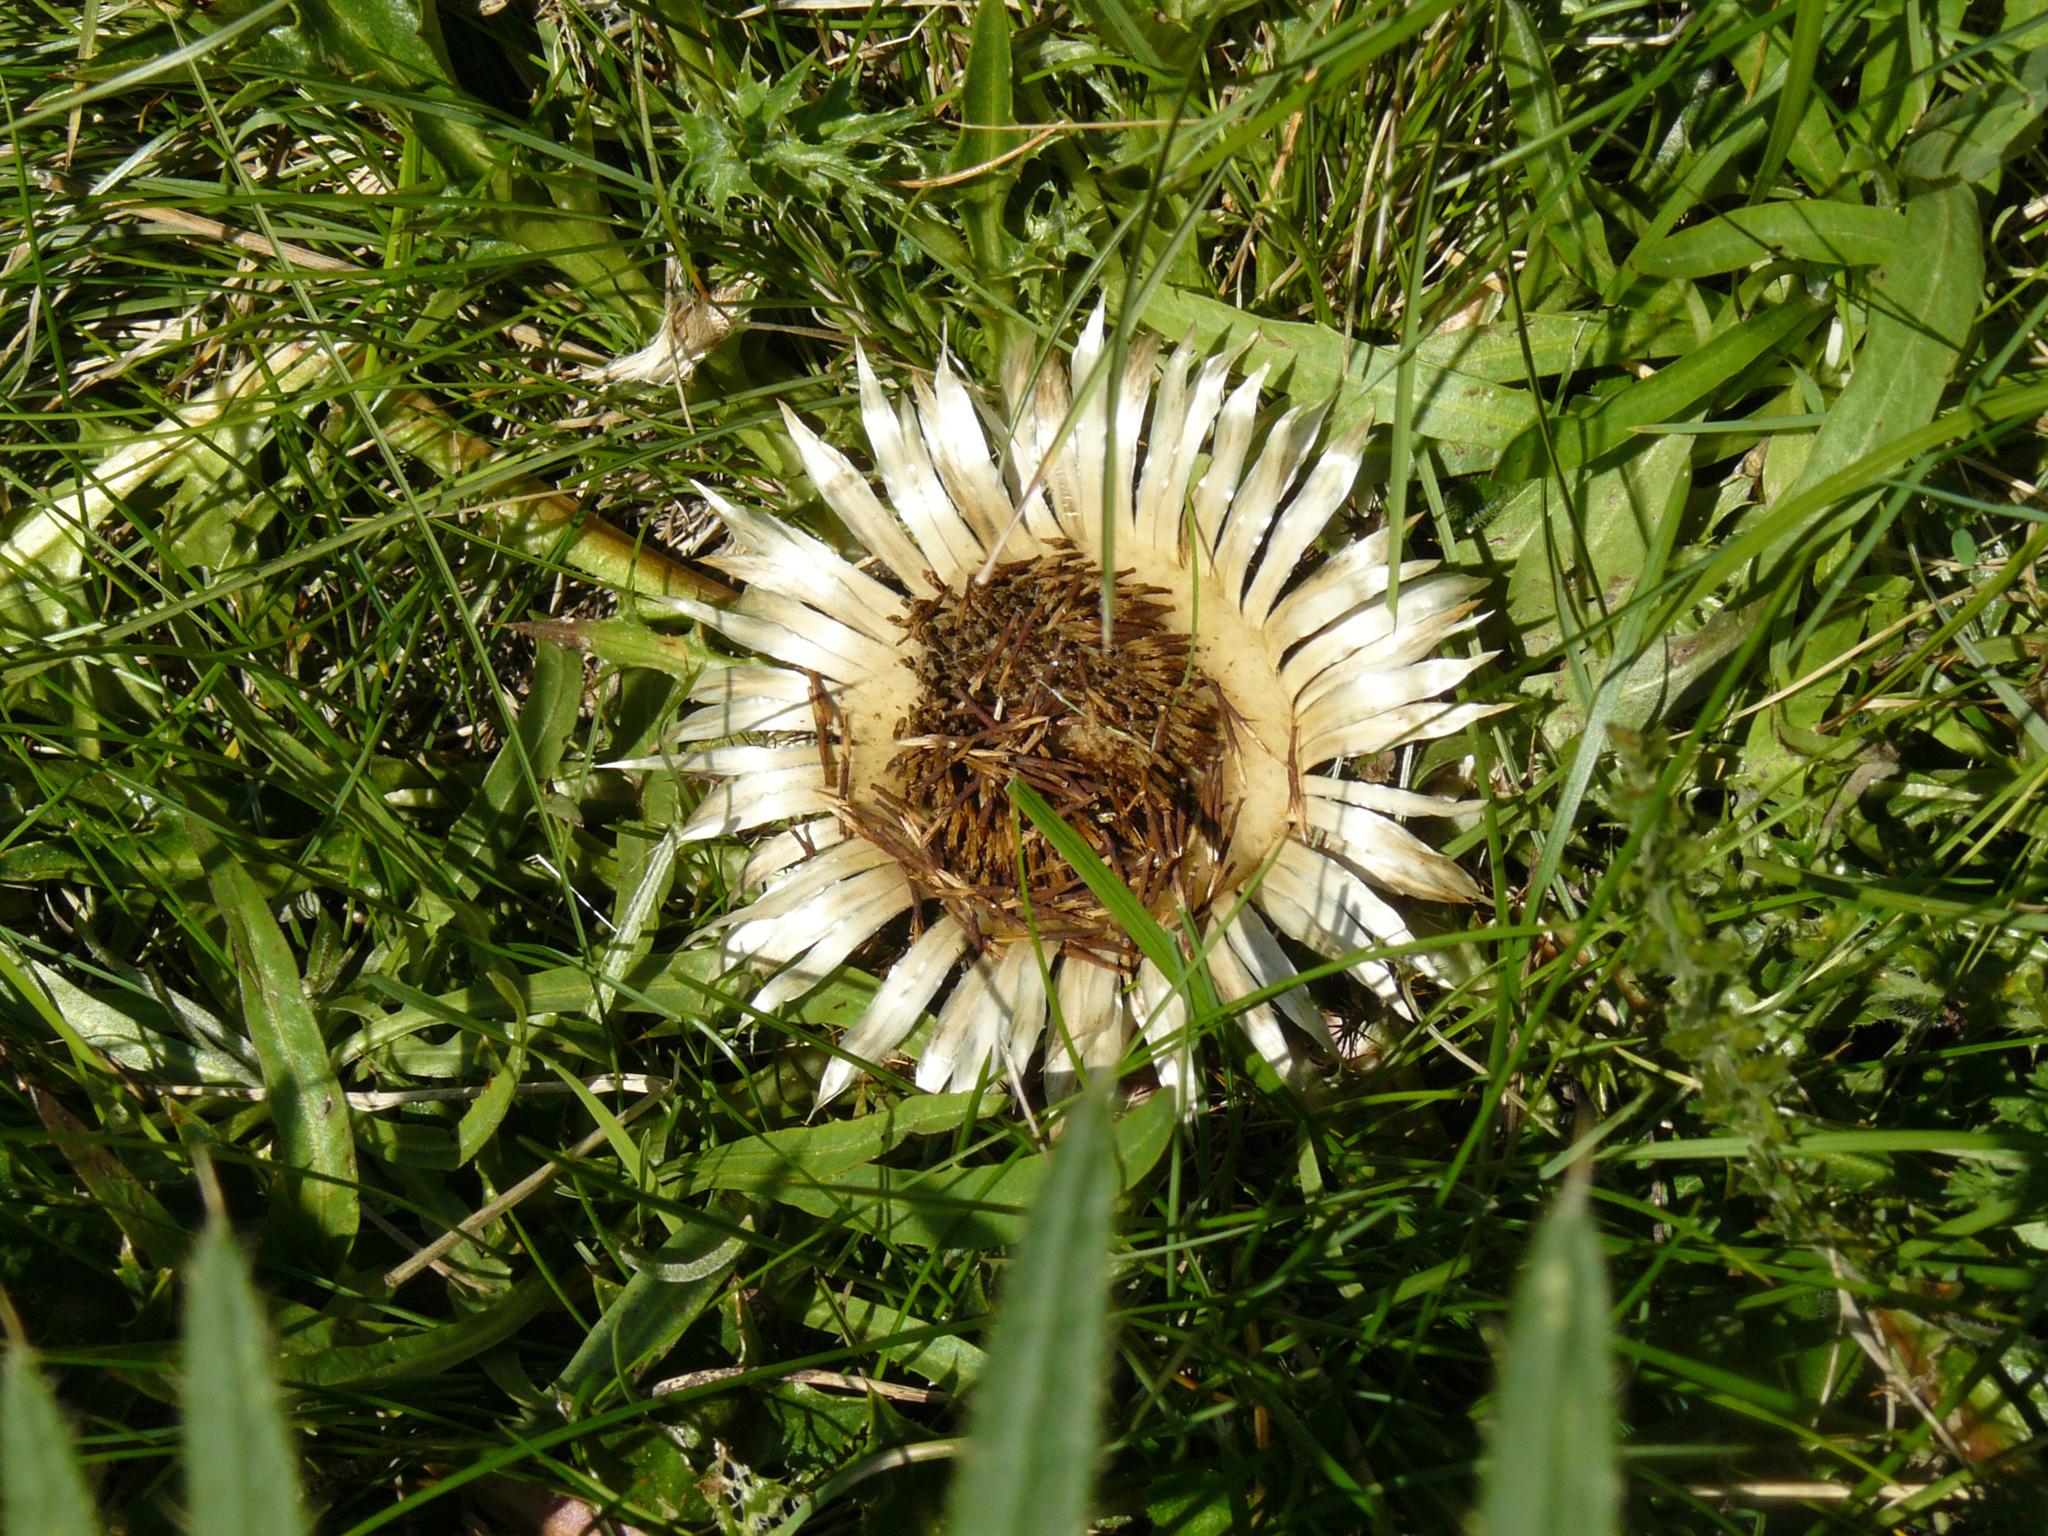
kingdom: Plantae
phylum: Tracheophyta
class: Magnoliopsida
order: Asterales
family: Asteraceae
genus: Carlina
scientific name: Carlina acaulis
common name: Stemless carline thistle
